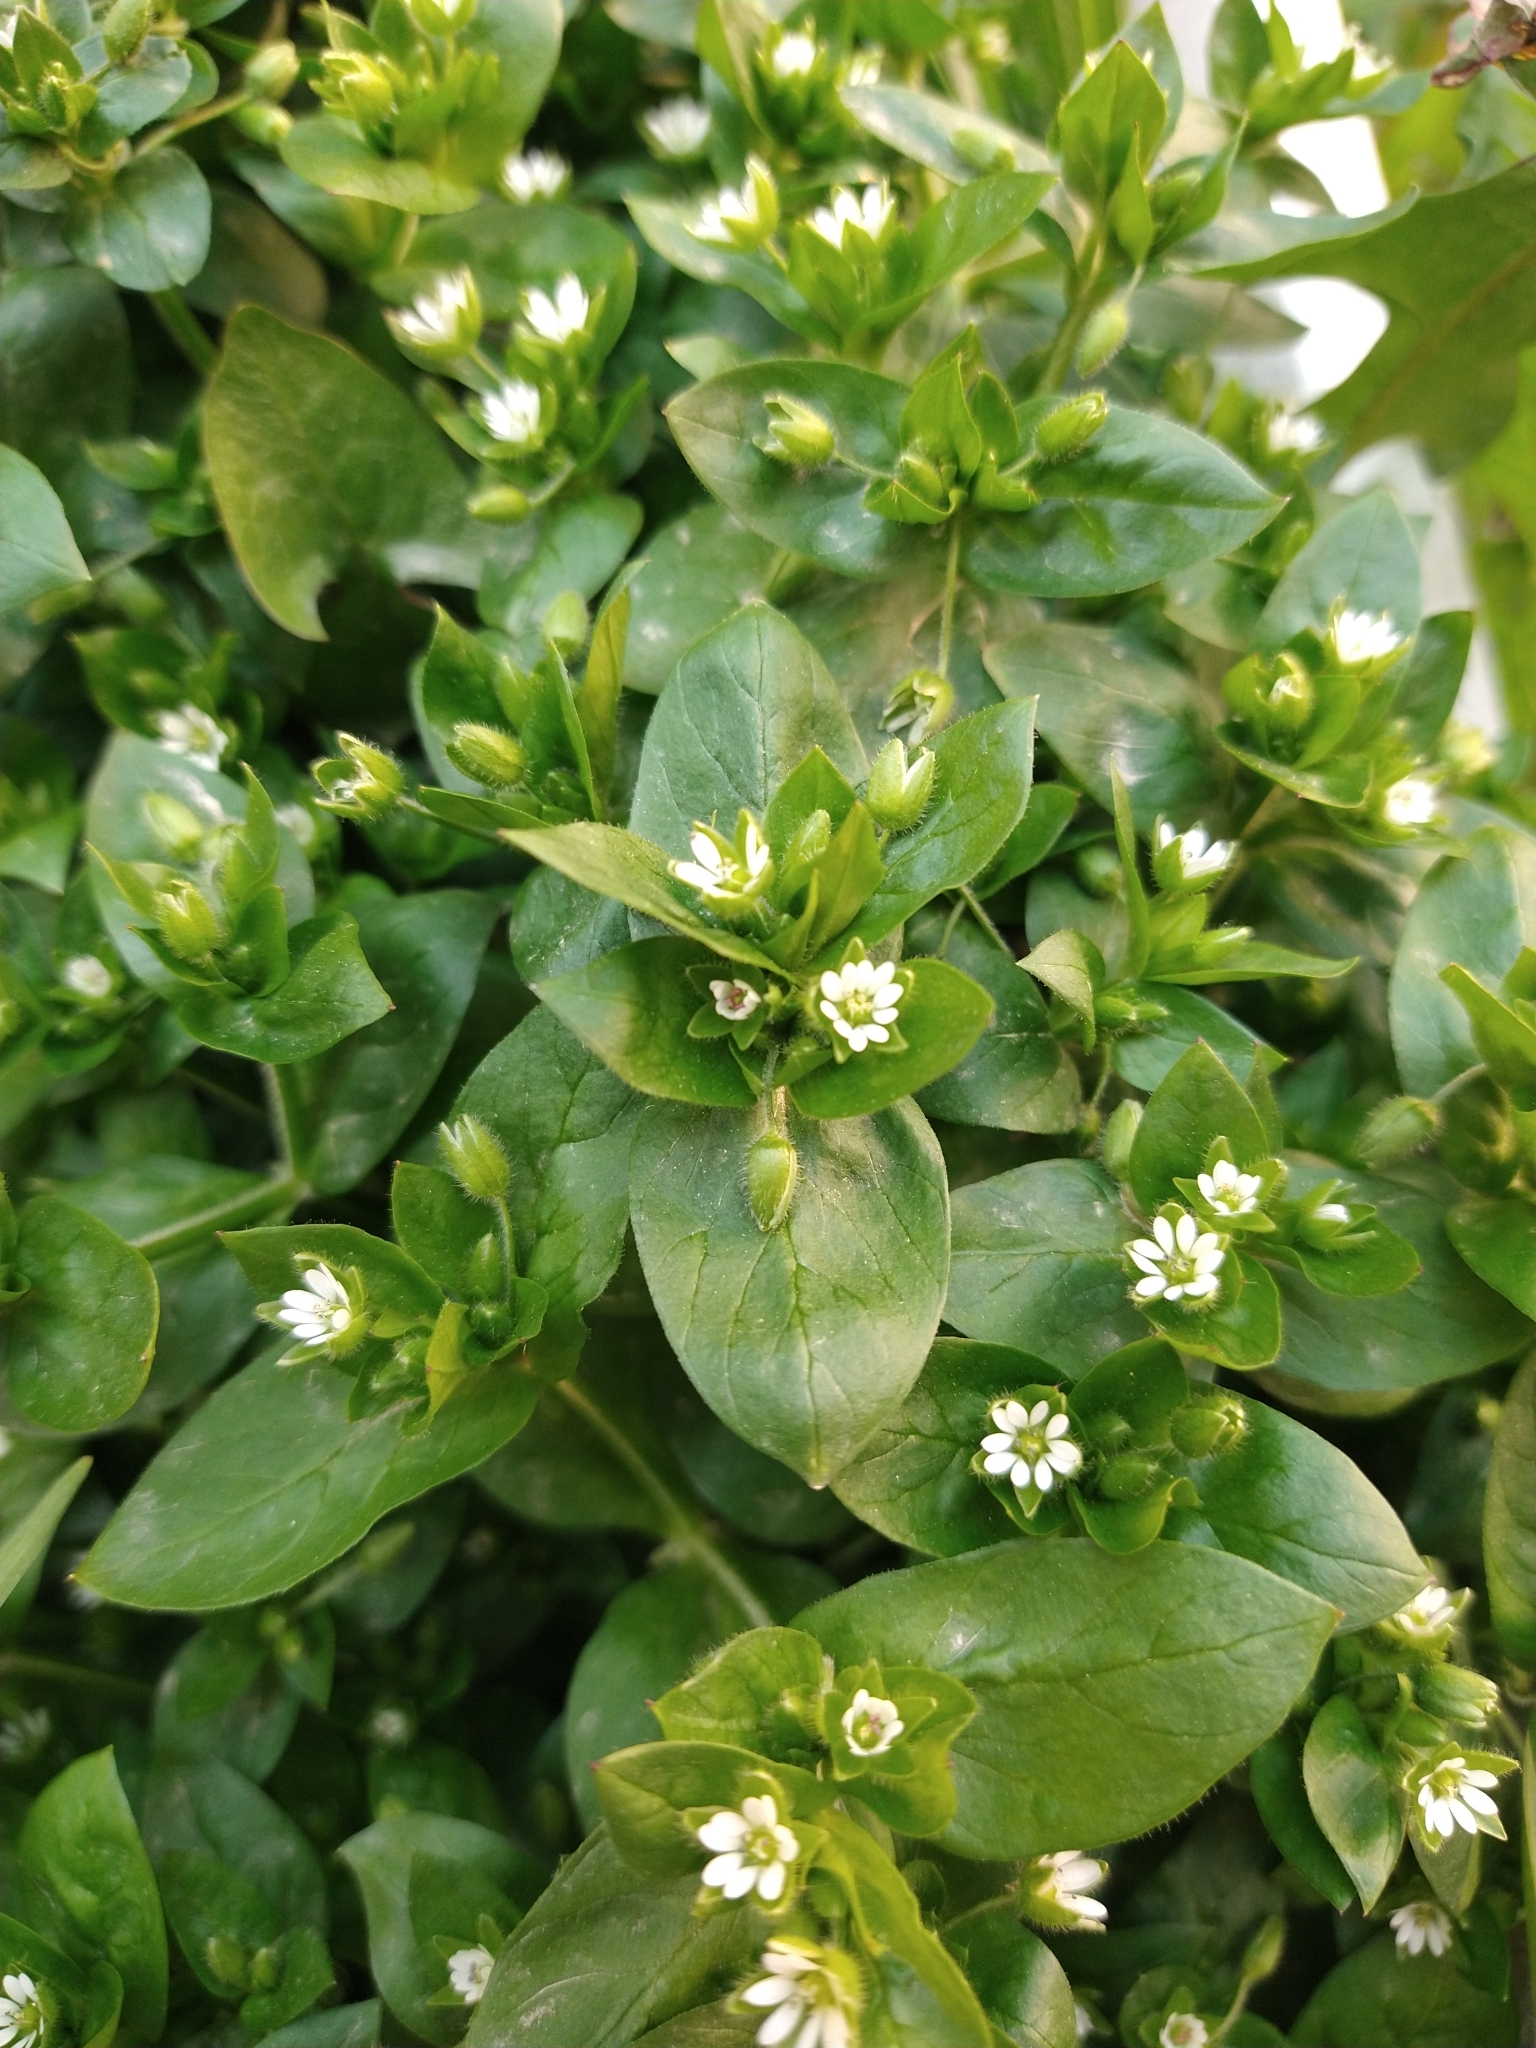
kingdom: Plantae
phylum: Tracheophyta
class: Magnoliopsida
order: Caryophyllales
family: Caryophyllaceae
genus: Stellaria
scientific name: Stellaria media
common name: Common chickweed
